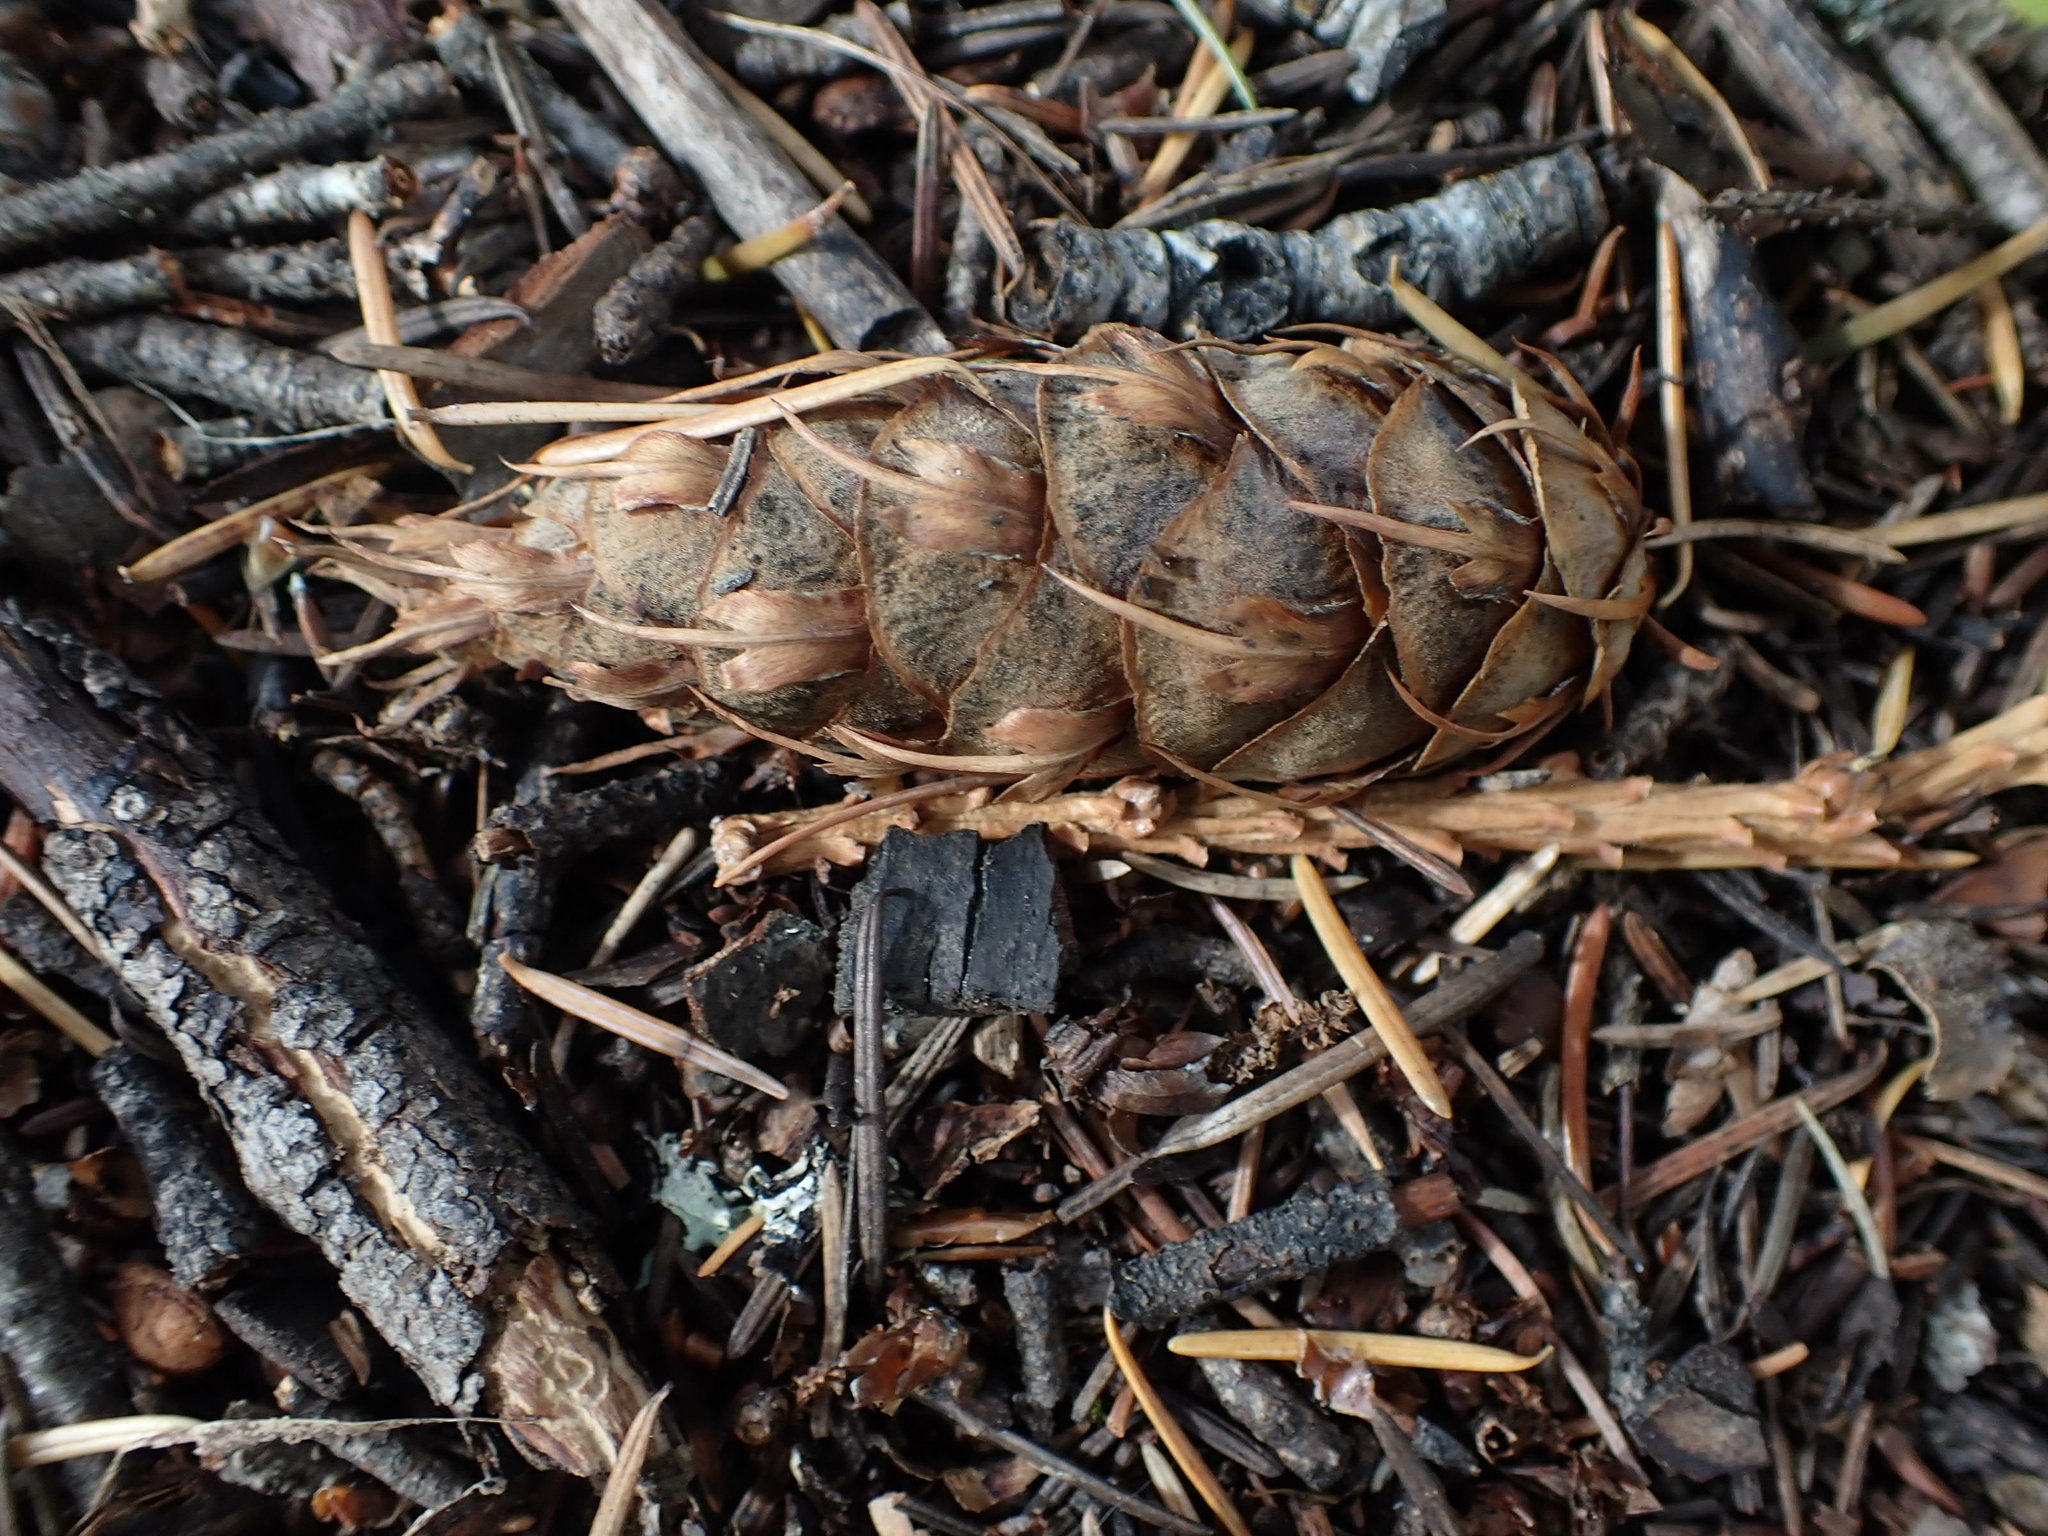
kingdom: Plantae
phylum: Tracheophyta
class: Pinopsida
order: Pinales
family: Pinaceae
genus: Pseudotsuga
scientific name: Pseudotsuga menziesii
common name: Douglas fir
